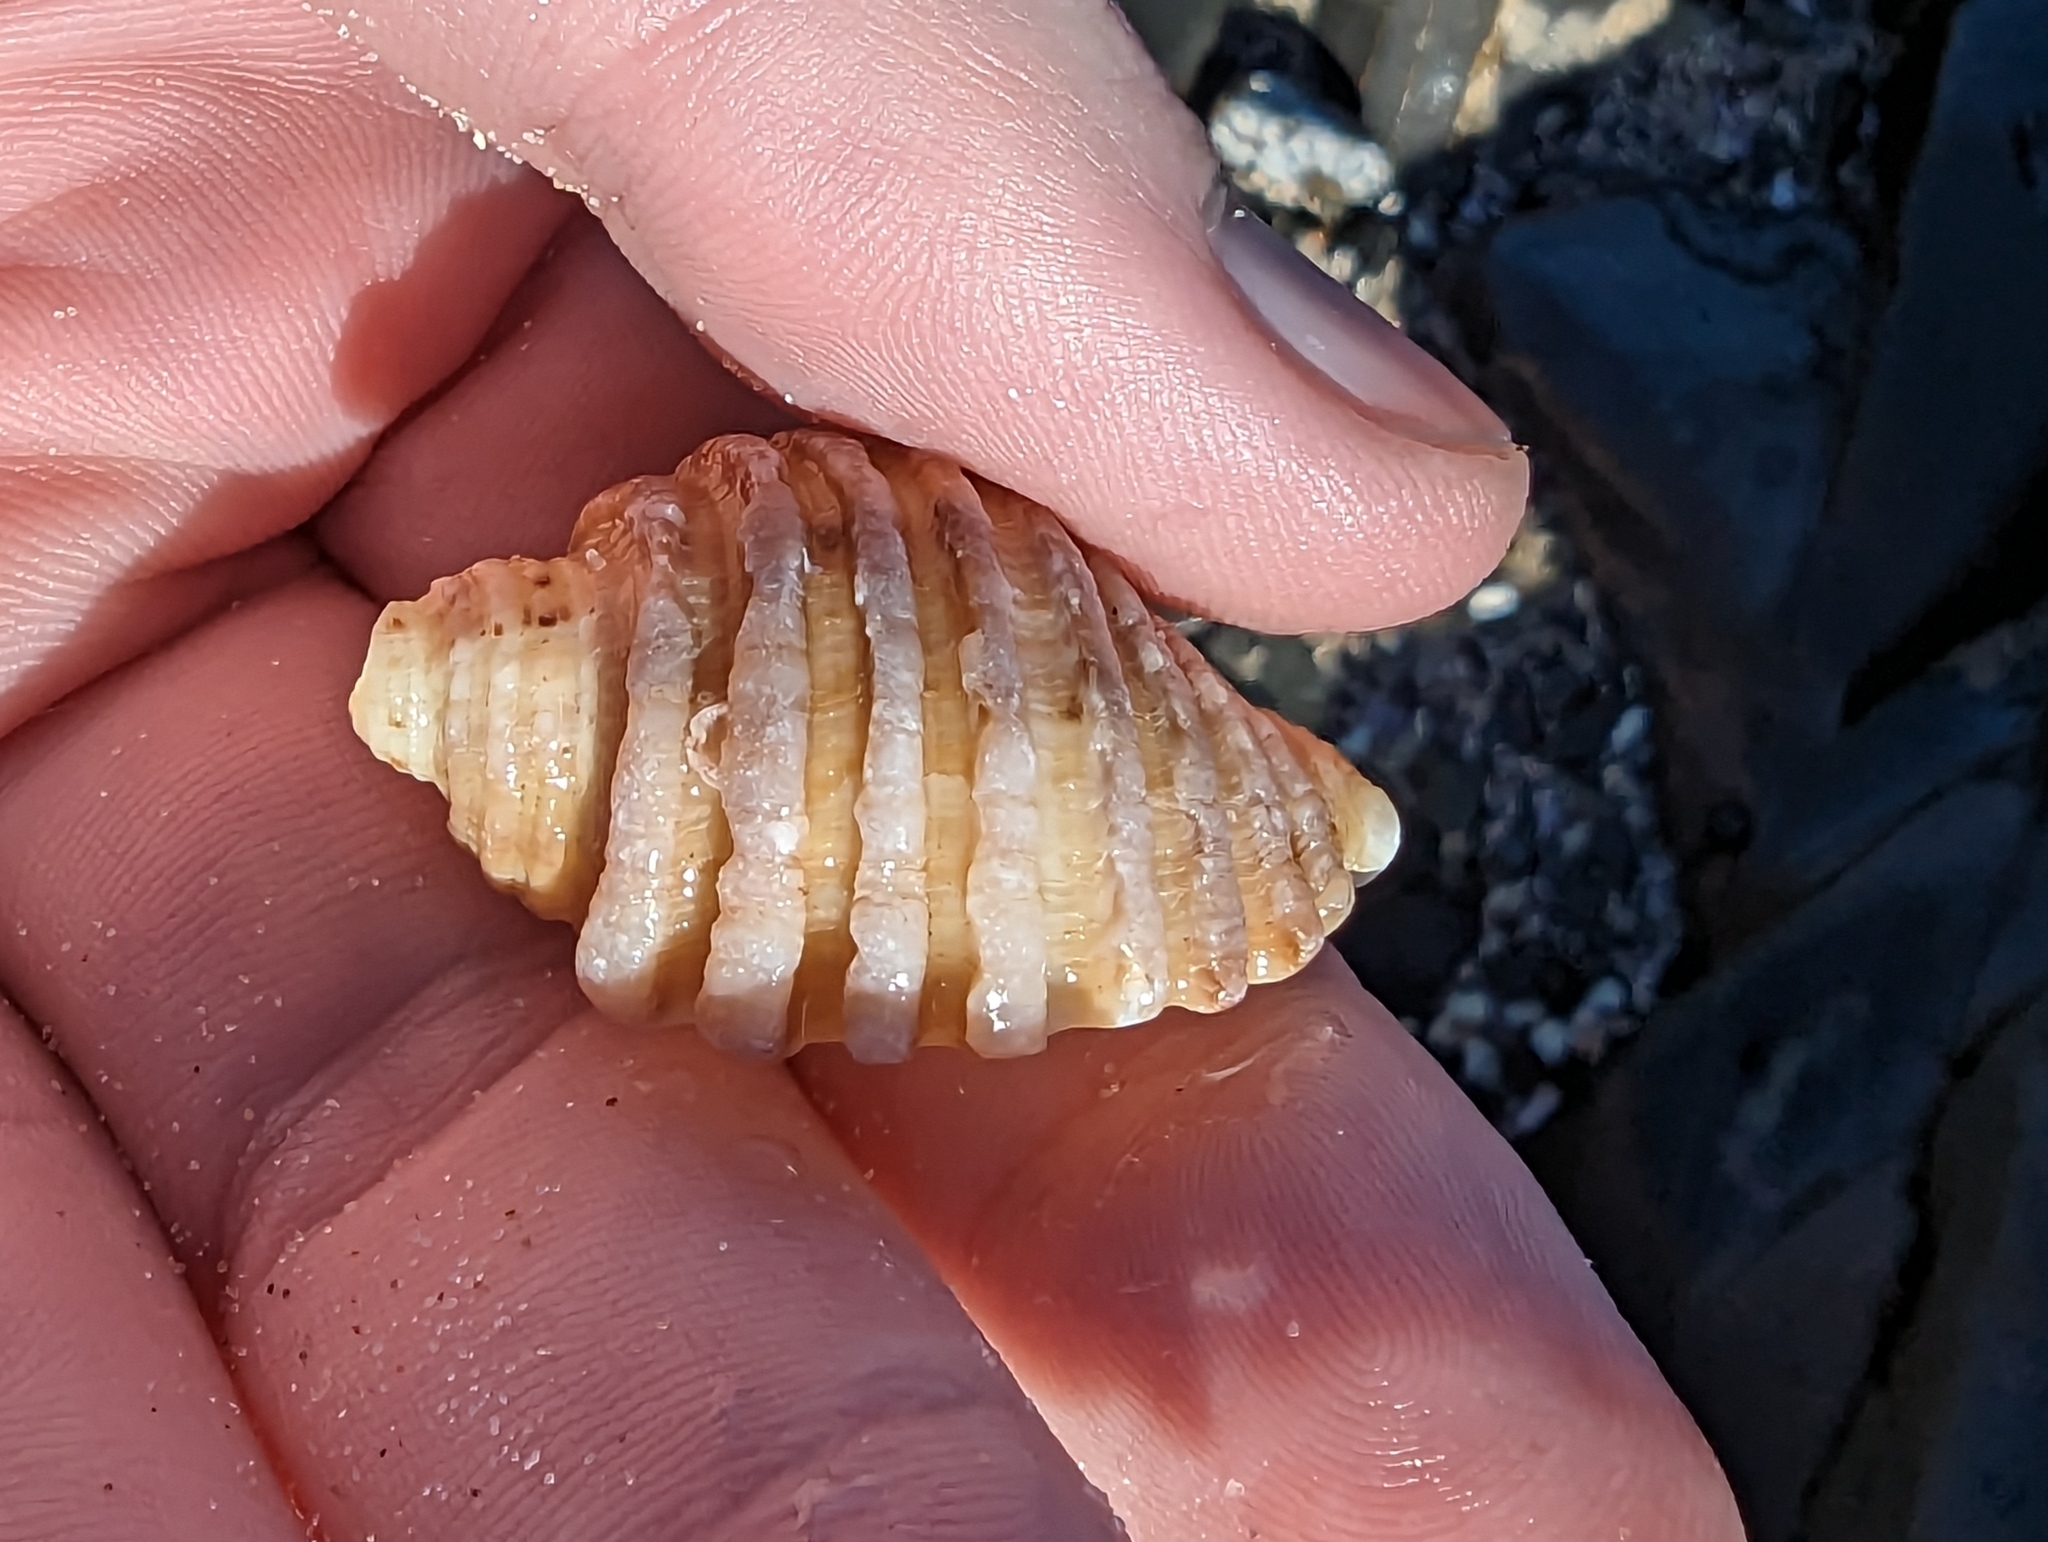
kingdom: Animalia
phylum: Mollusca
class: Gastropoda
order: Neogastropoda
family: Muricidae
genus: Dicathais
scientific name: Dicathais orbita
